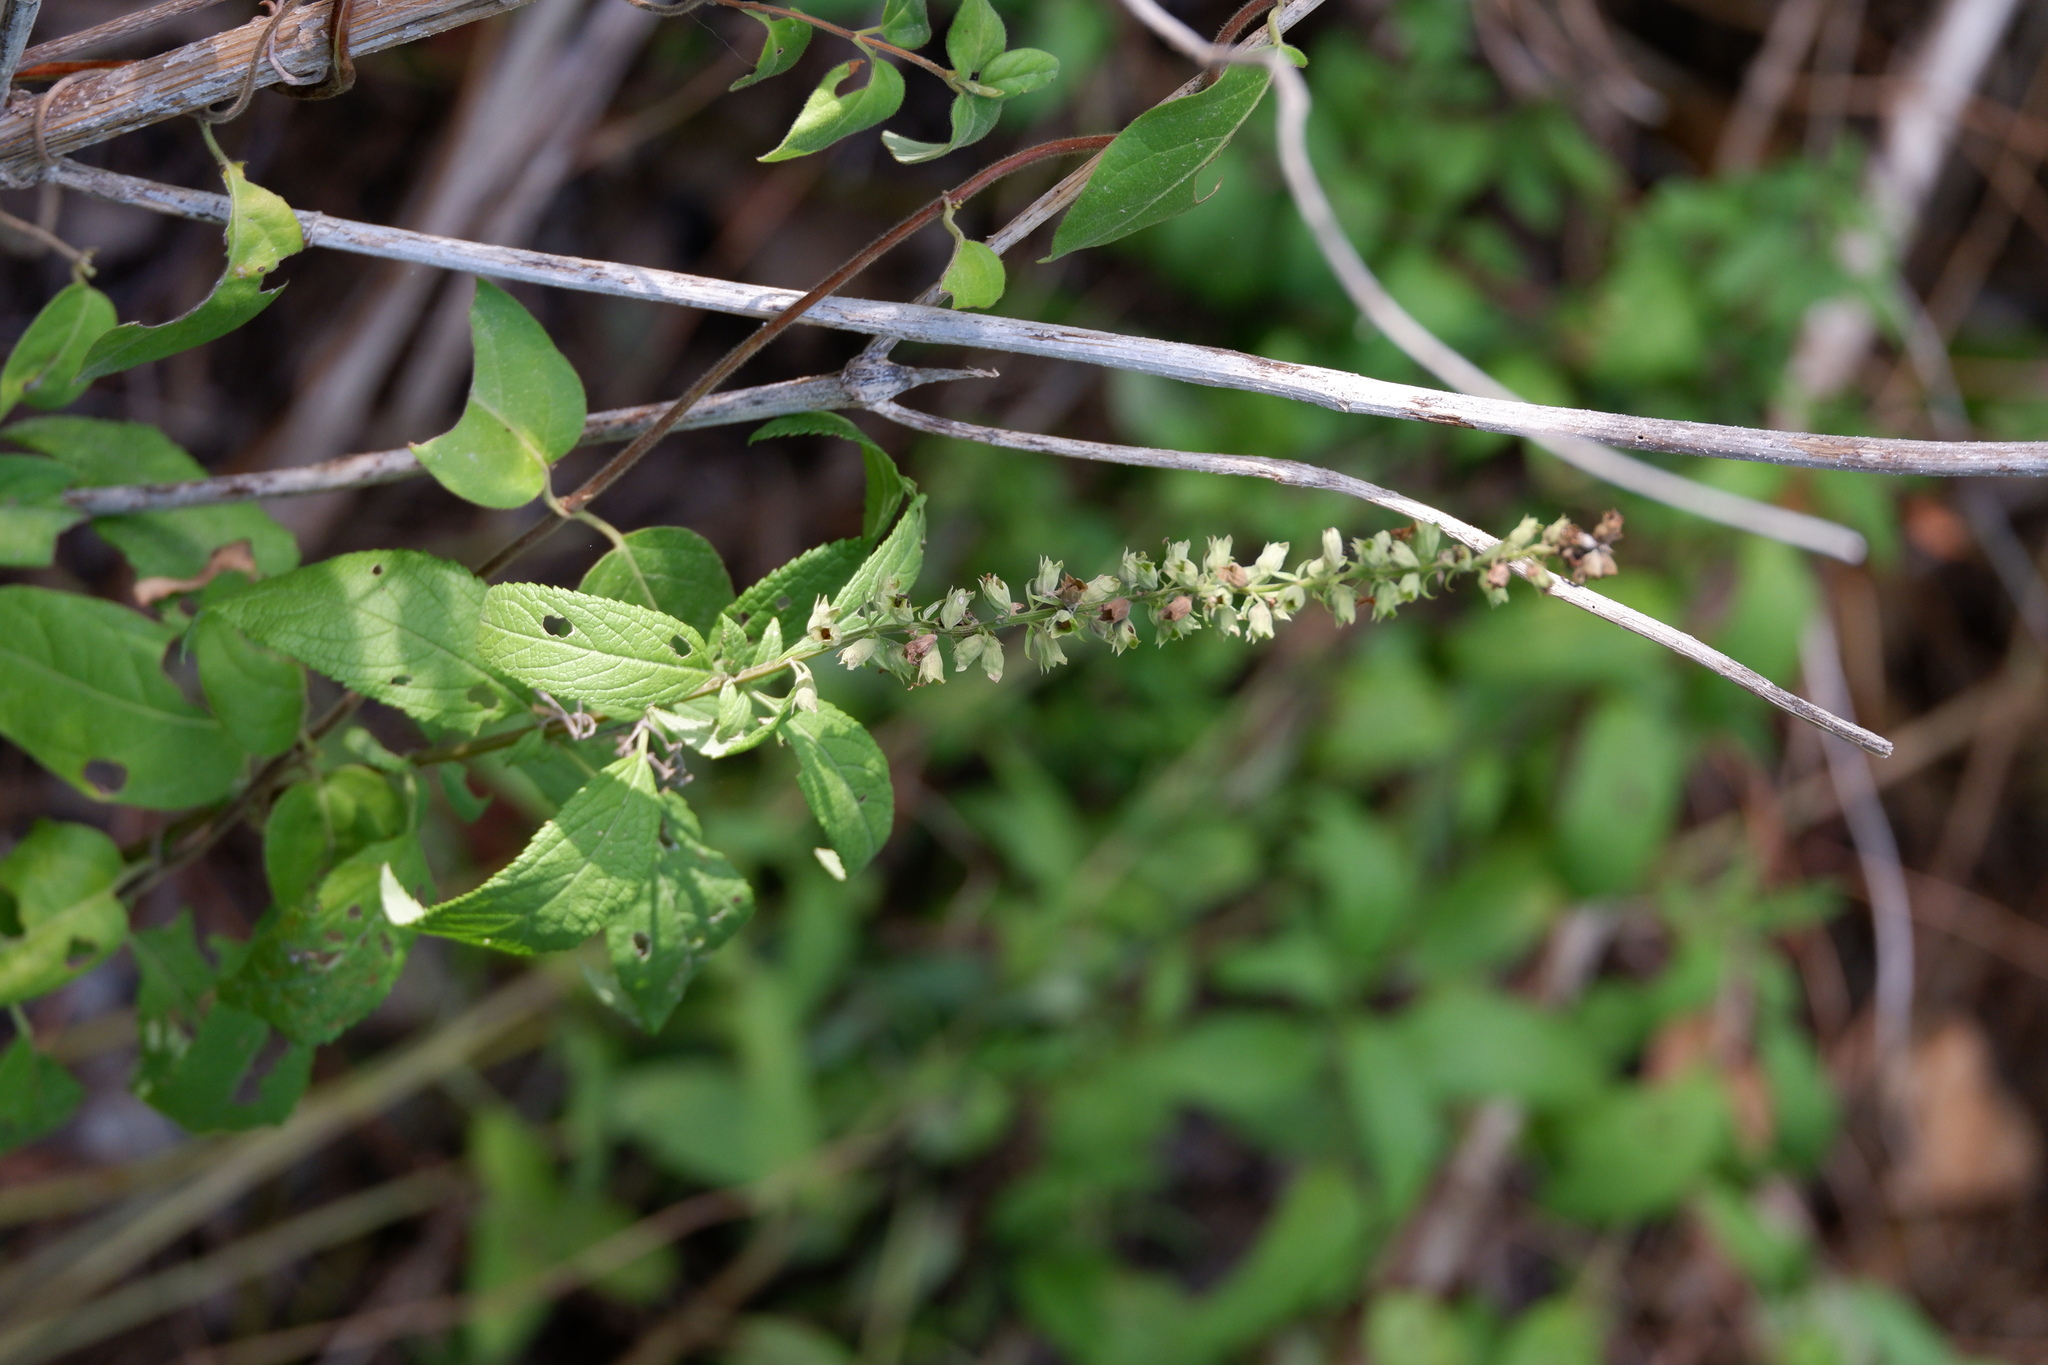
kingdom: Plantae
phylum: Tracheophyta
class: Magnoliopsida
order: Lamiales
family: Lamiaceae
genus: Teucrium
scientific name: Teucrium canadense
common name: American germander
